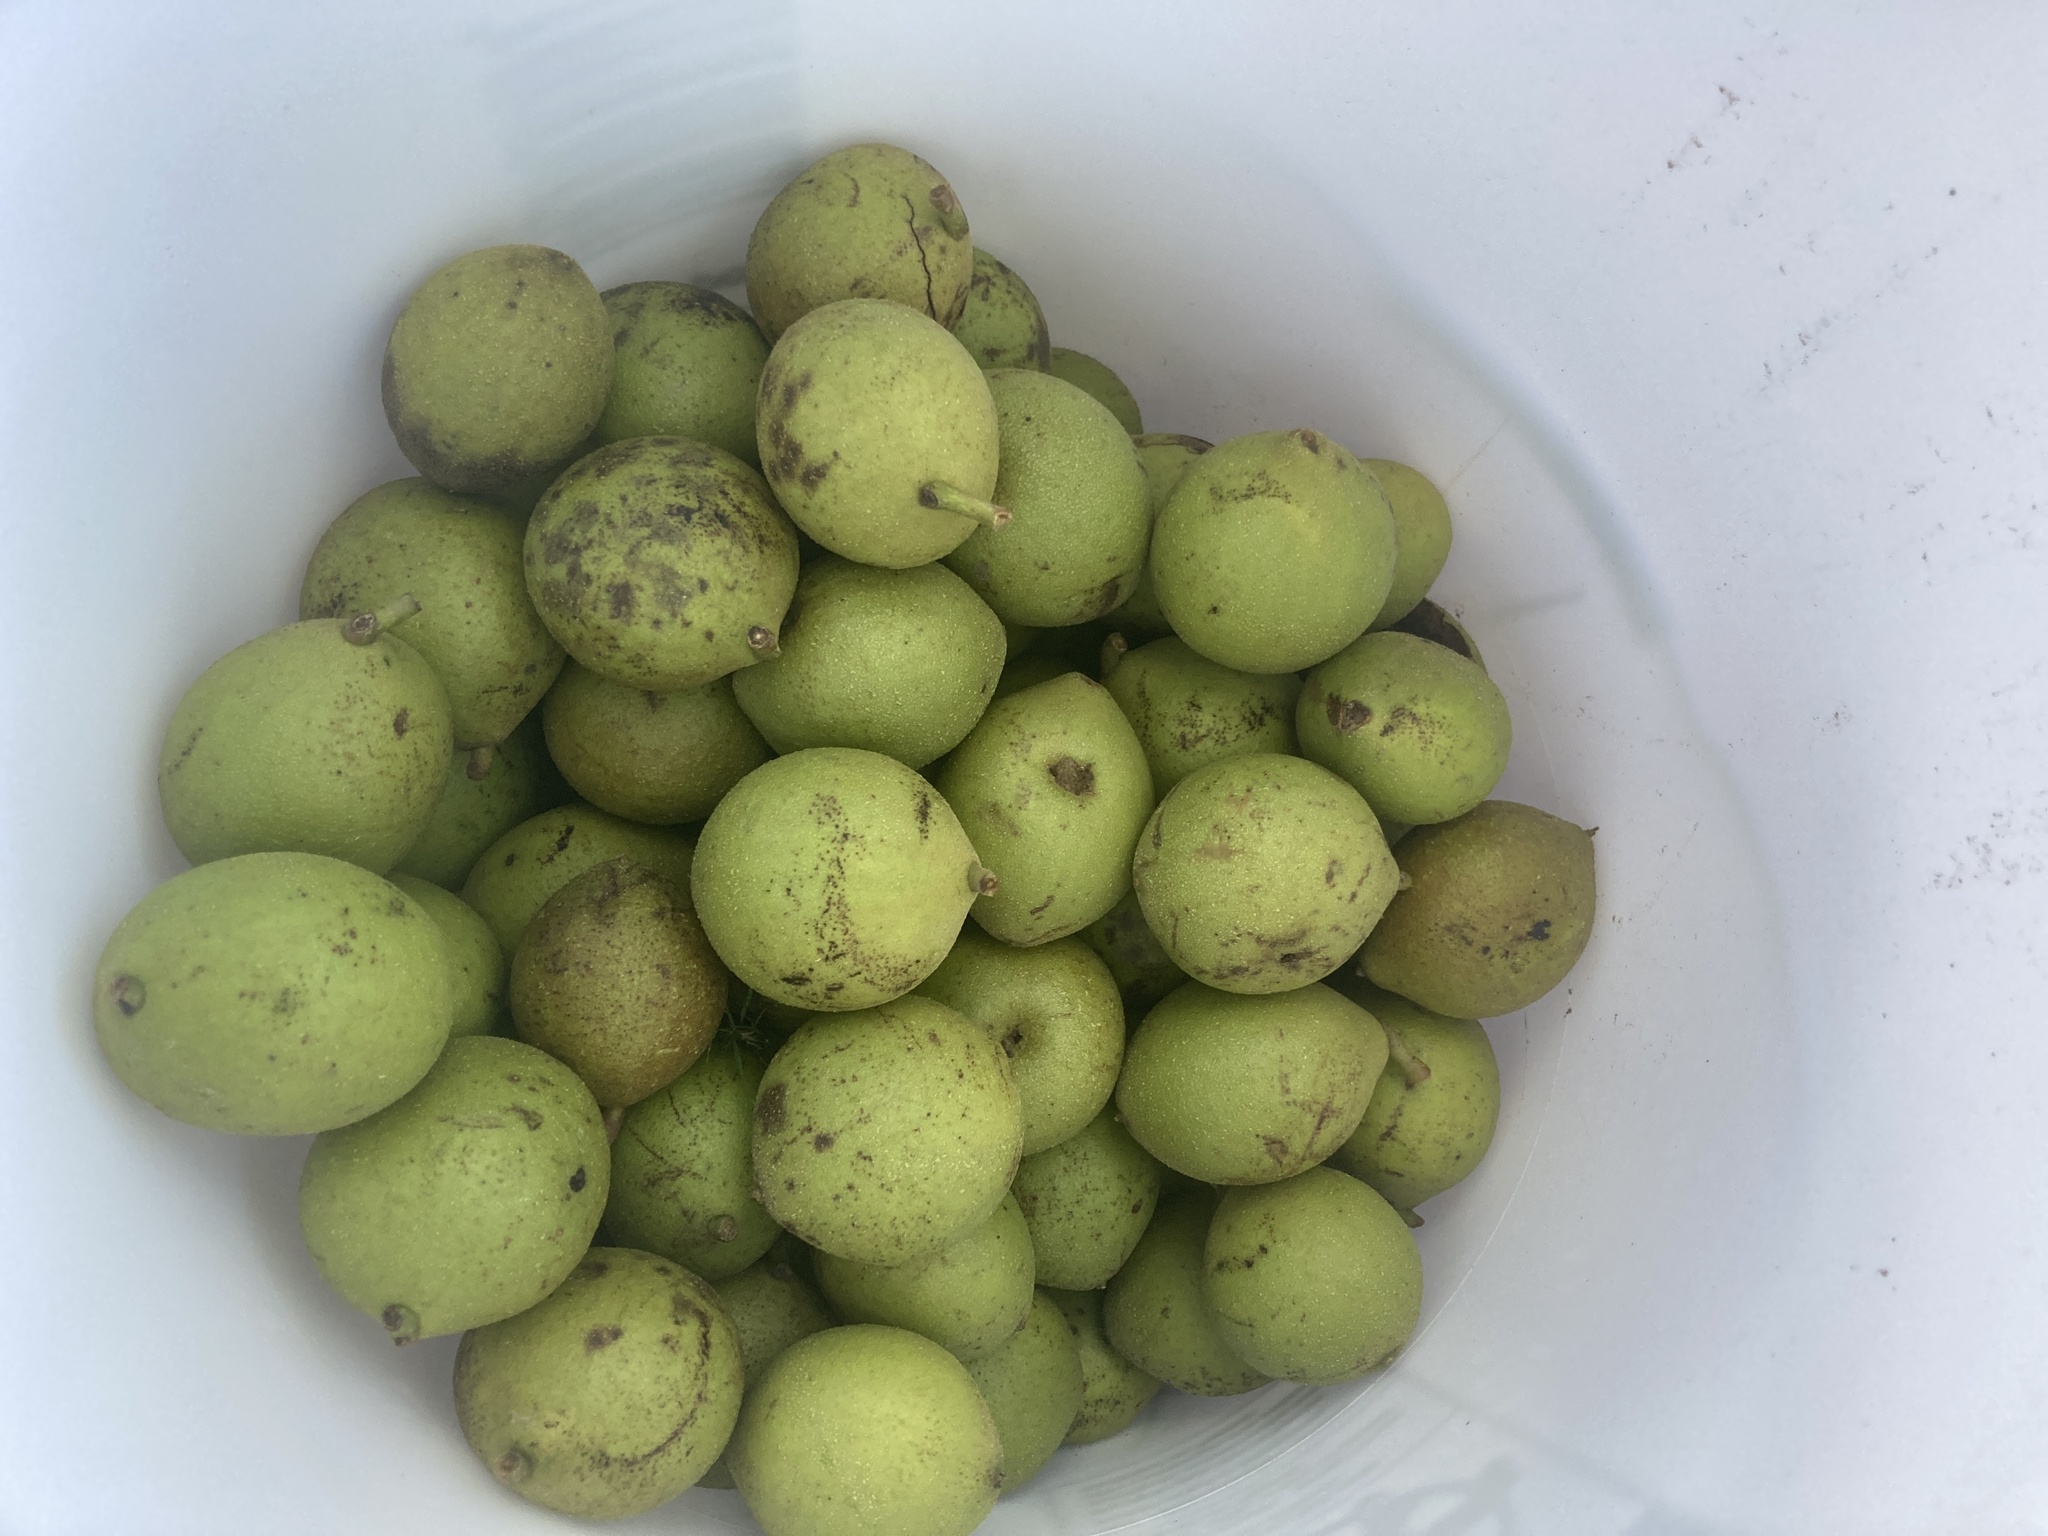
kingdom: Plantae
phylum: Tracheophyta
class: Magnoliopsida
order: Fagales
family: Juglandaceae
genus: Juglans
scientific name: Juglans nigra
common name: Black walnut
